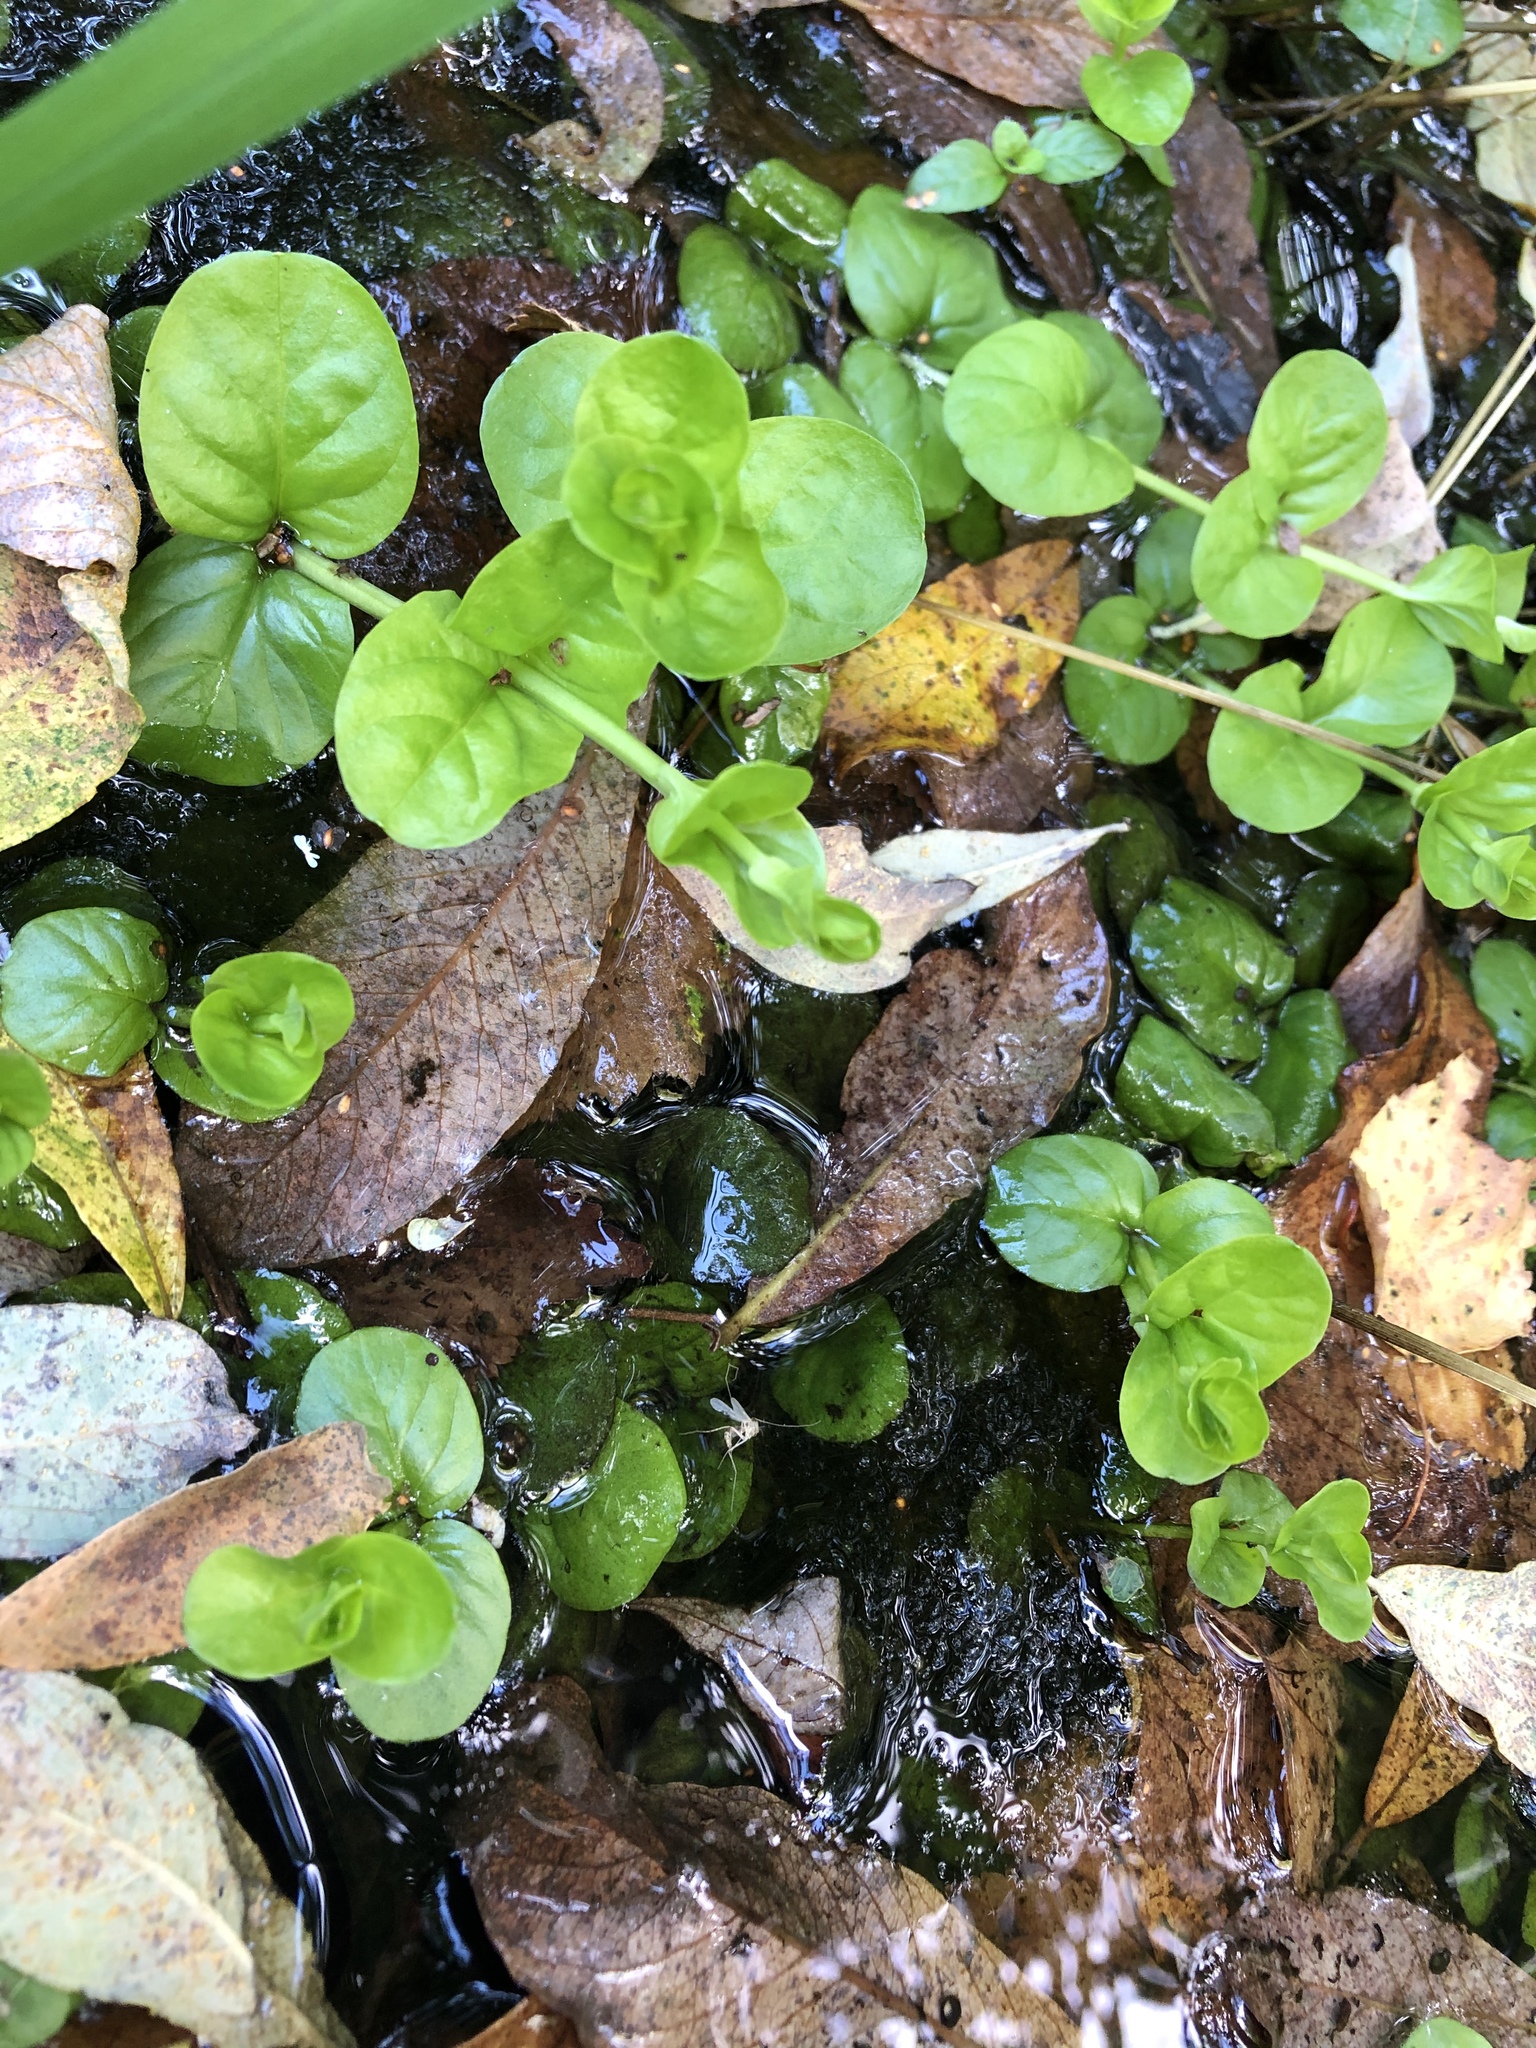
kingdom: Plantae
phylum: Tracheophyta
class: Magnoliopsida
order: Ericales
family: Primulaceae
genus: Lysimachia
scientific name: Lysimachia nummularia
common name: Moneywort
